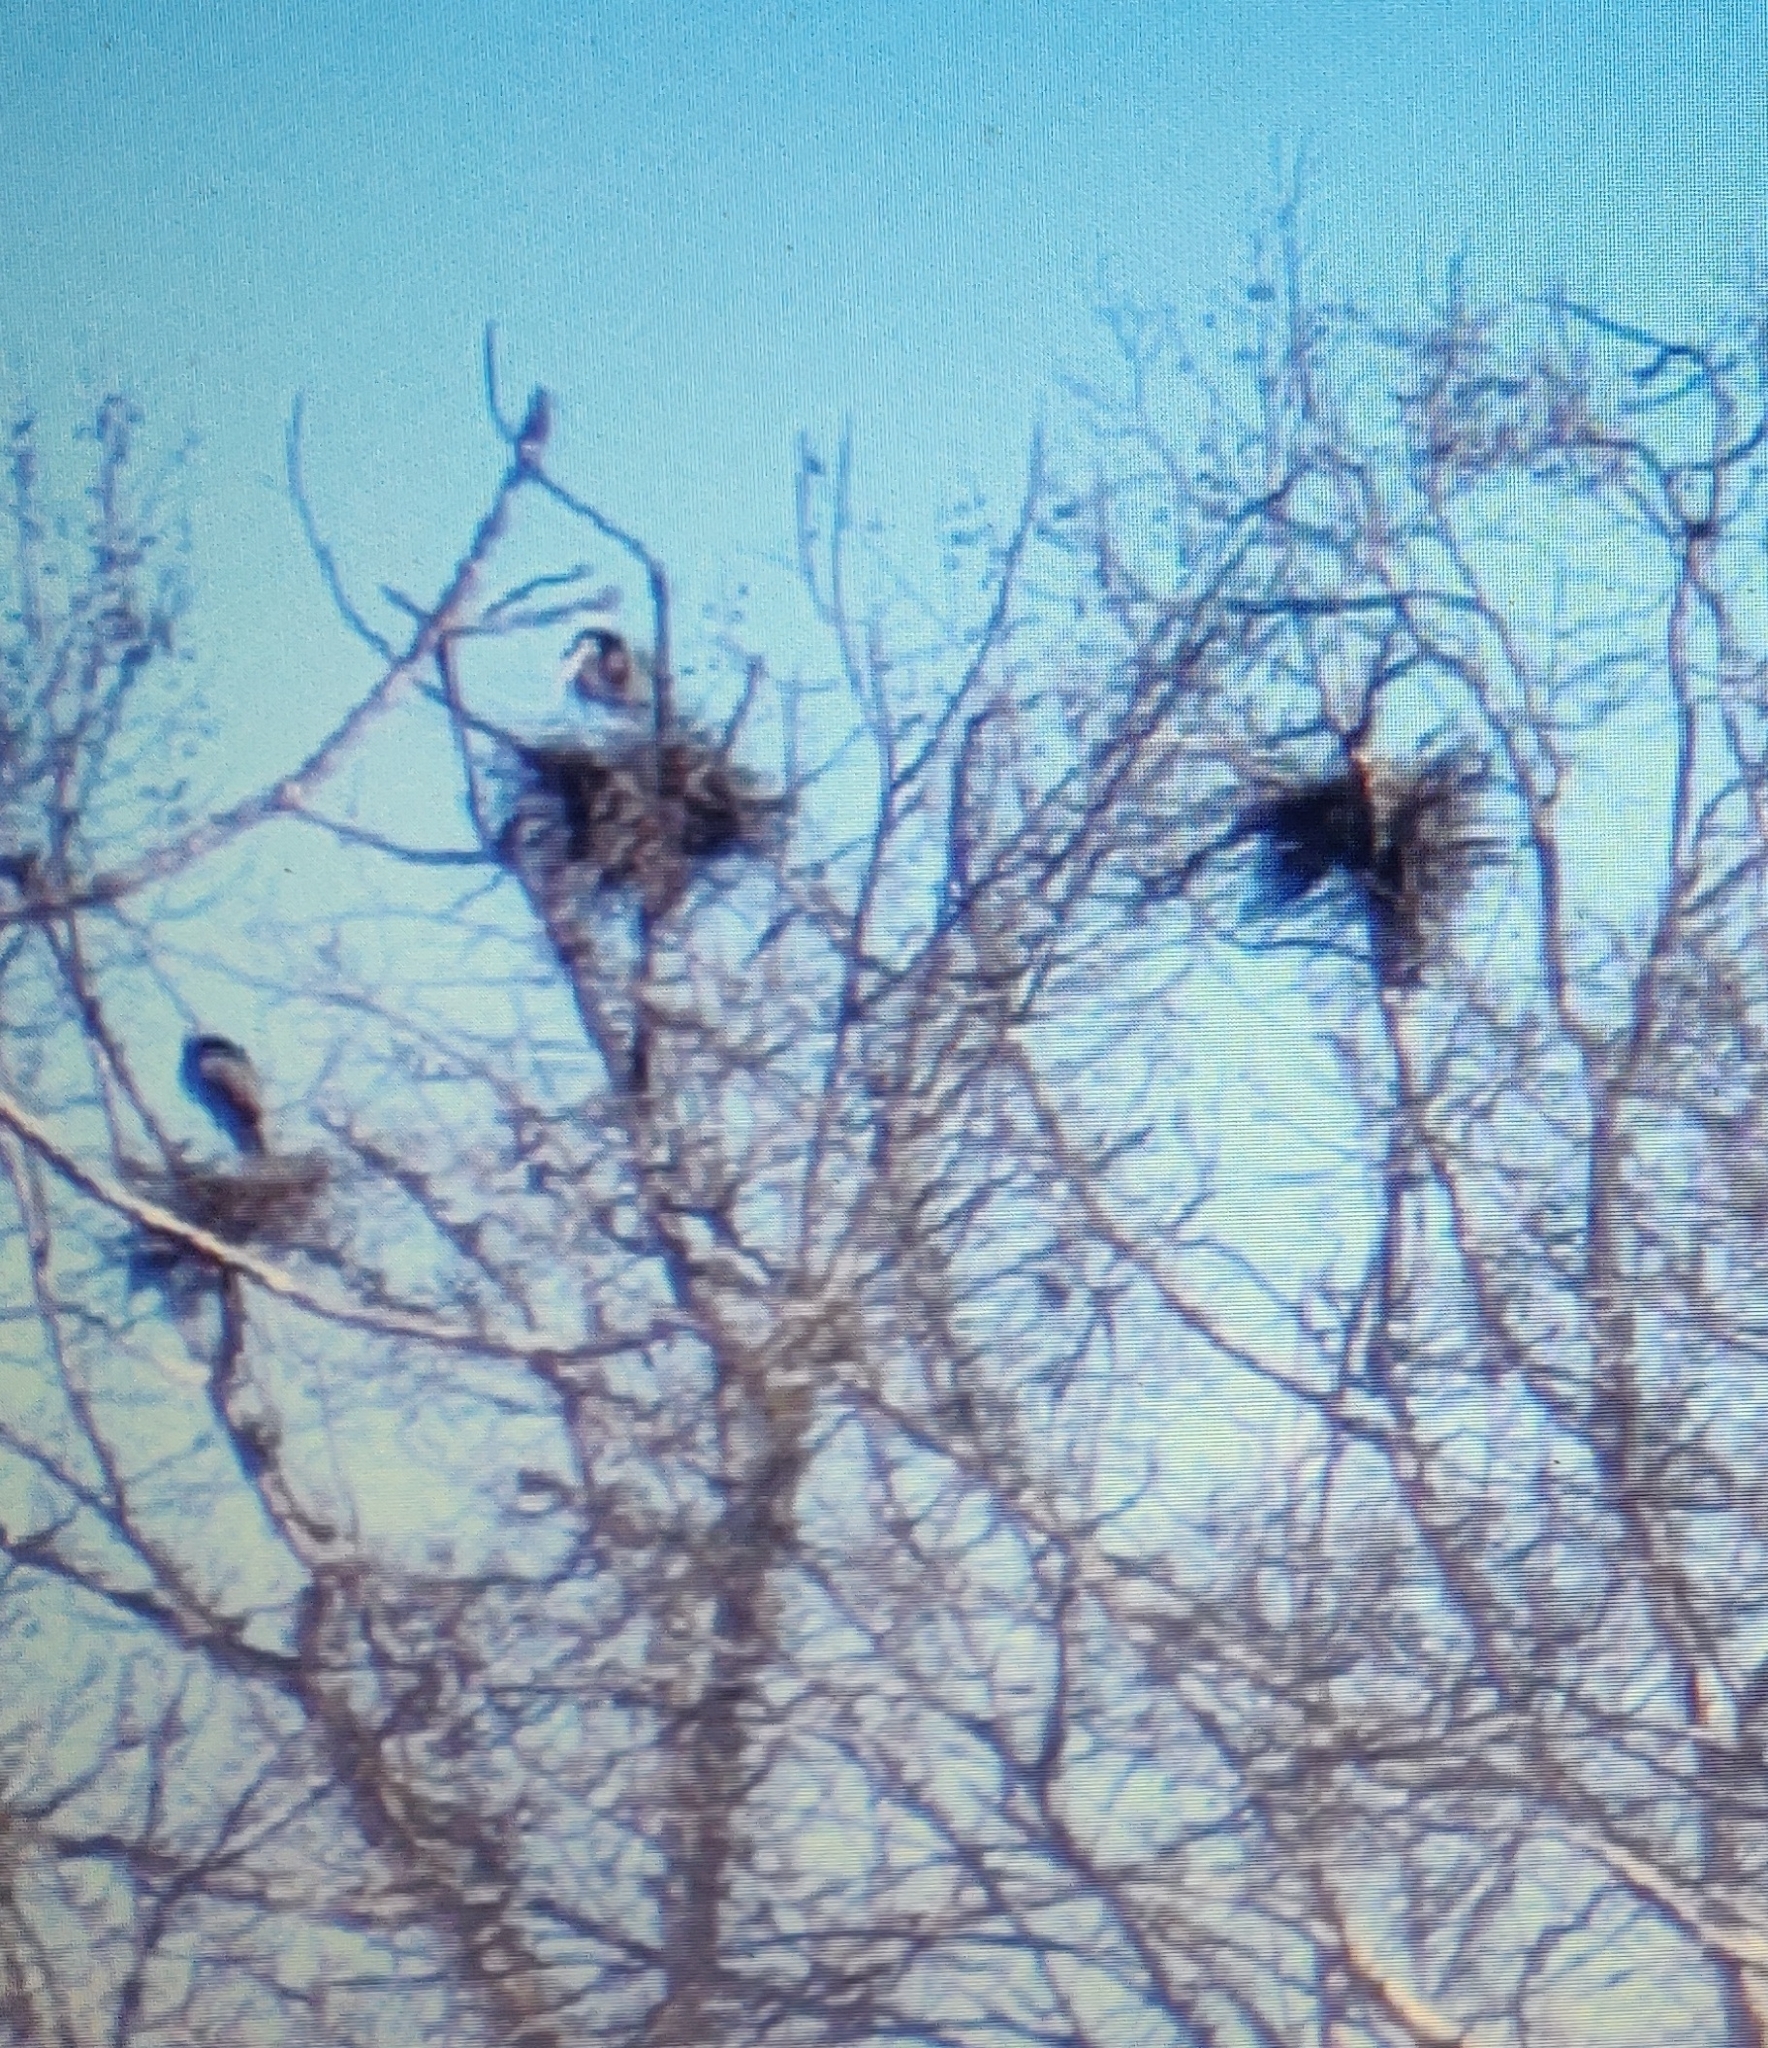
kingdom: Animalia
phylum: Chordata
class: Aves
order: Pelecaniformes
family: Ardeidae
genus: Ardea
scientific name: Ardea herodias
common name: Great blue heron
